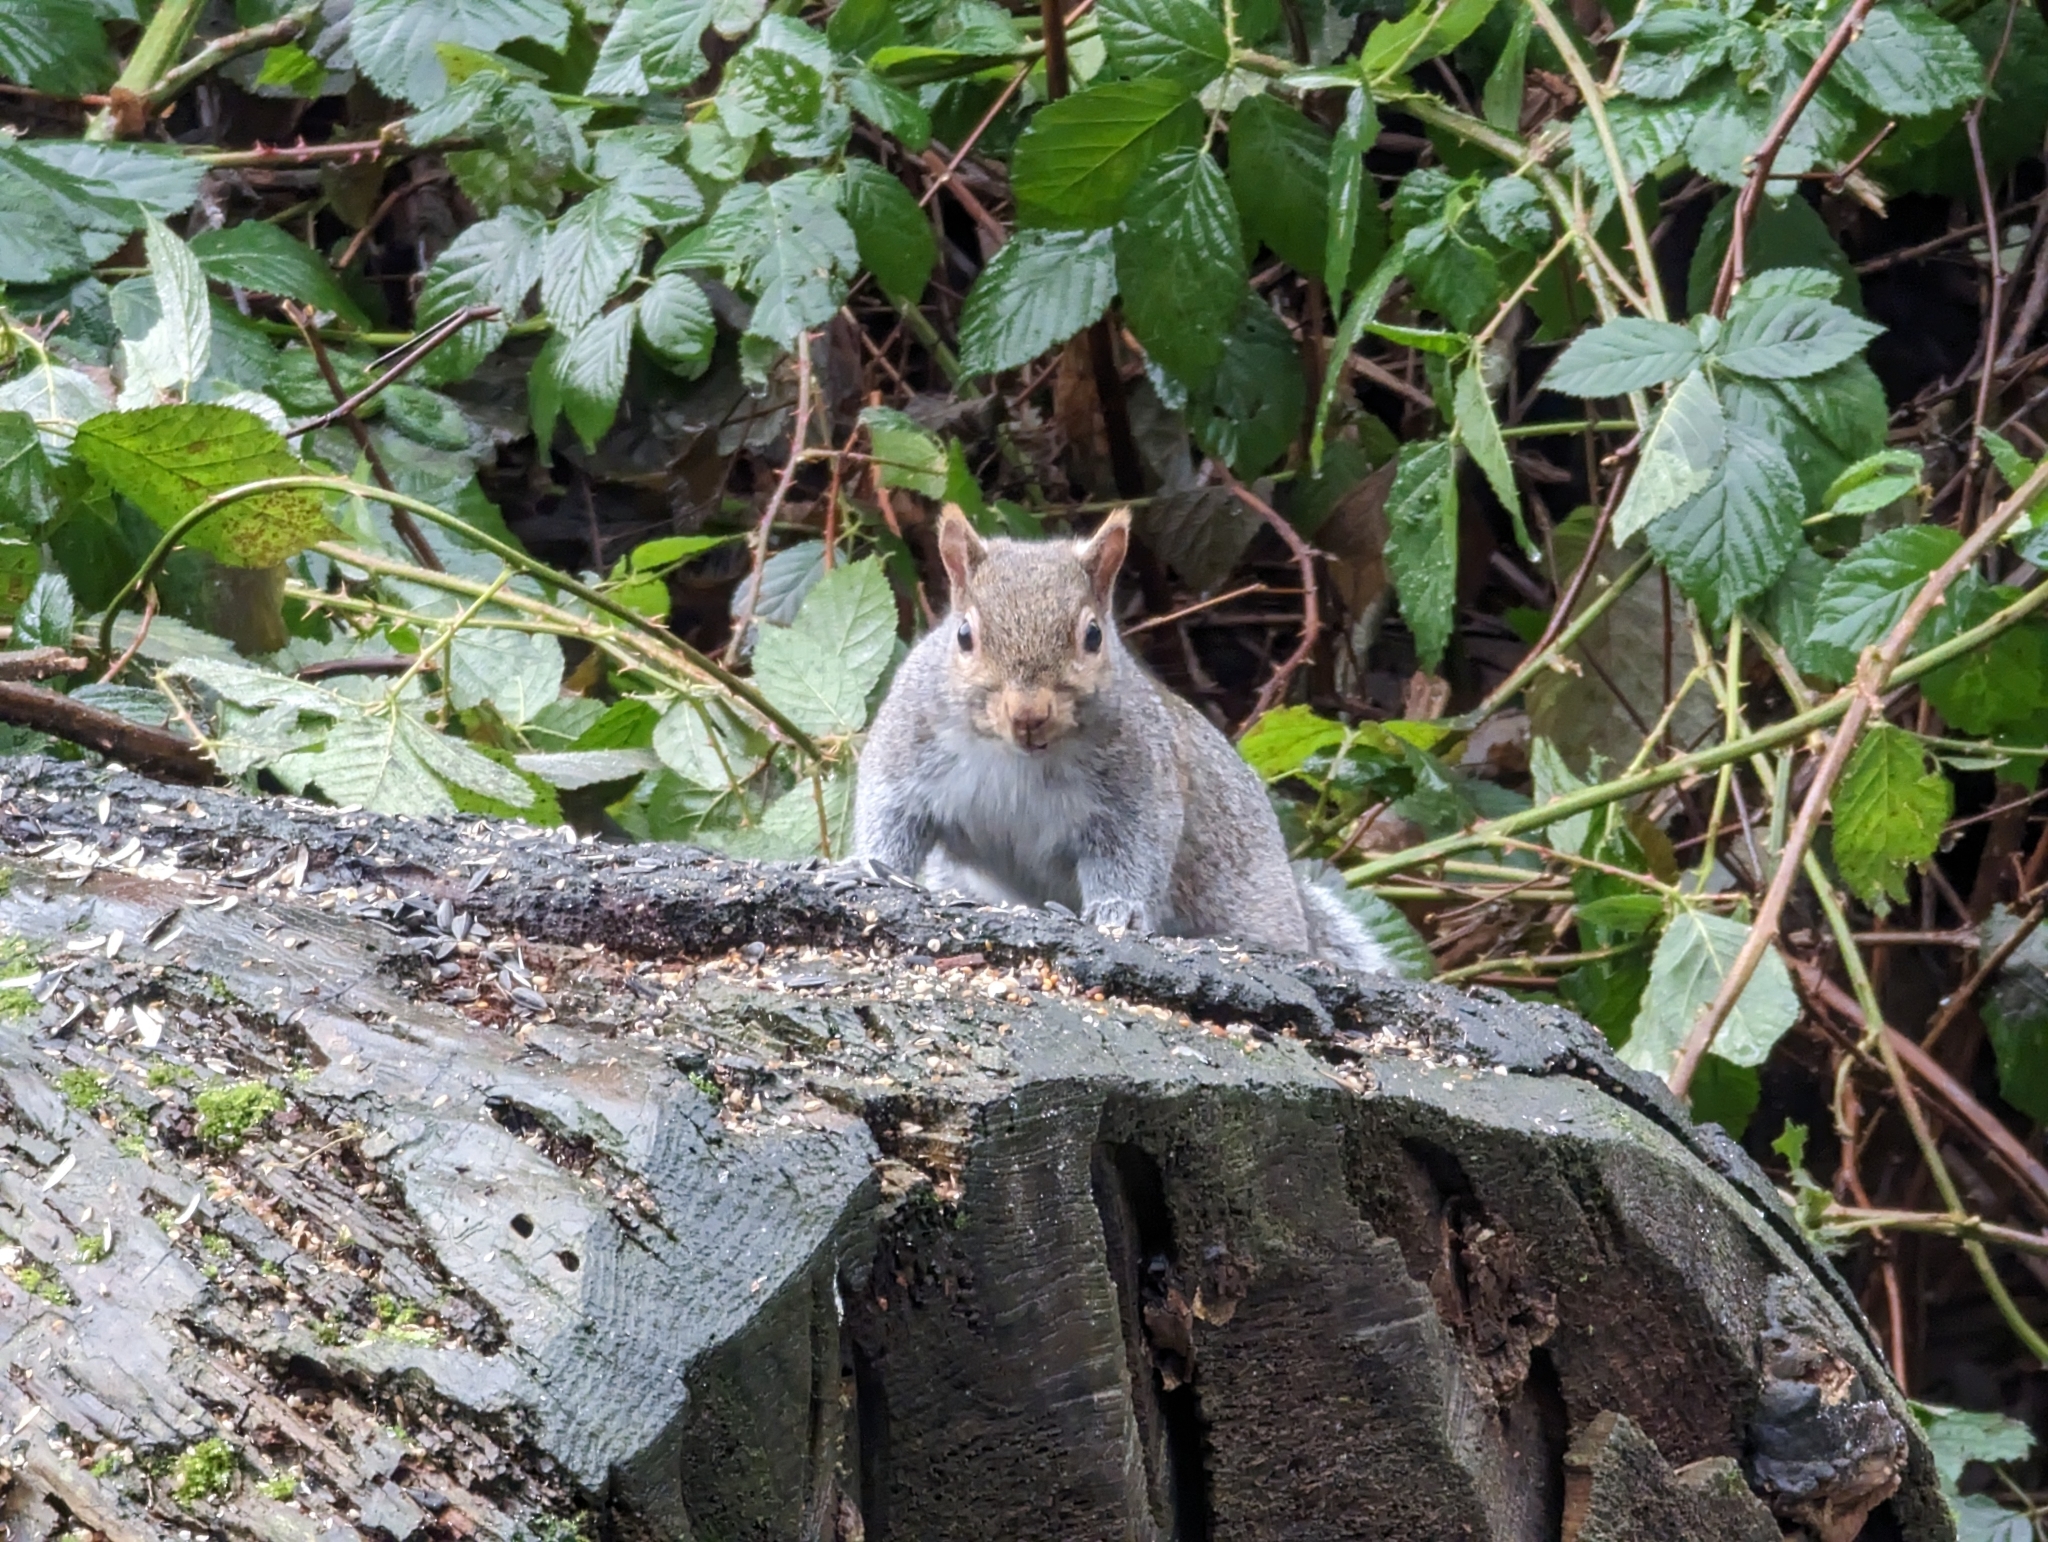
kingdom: Animalia
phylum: Chordata
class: Mammalia
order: Rodentia
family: Sciuridae
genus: Sciurus
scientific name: Sciurus carolinensis
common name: Eastern gray squirrel
